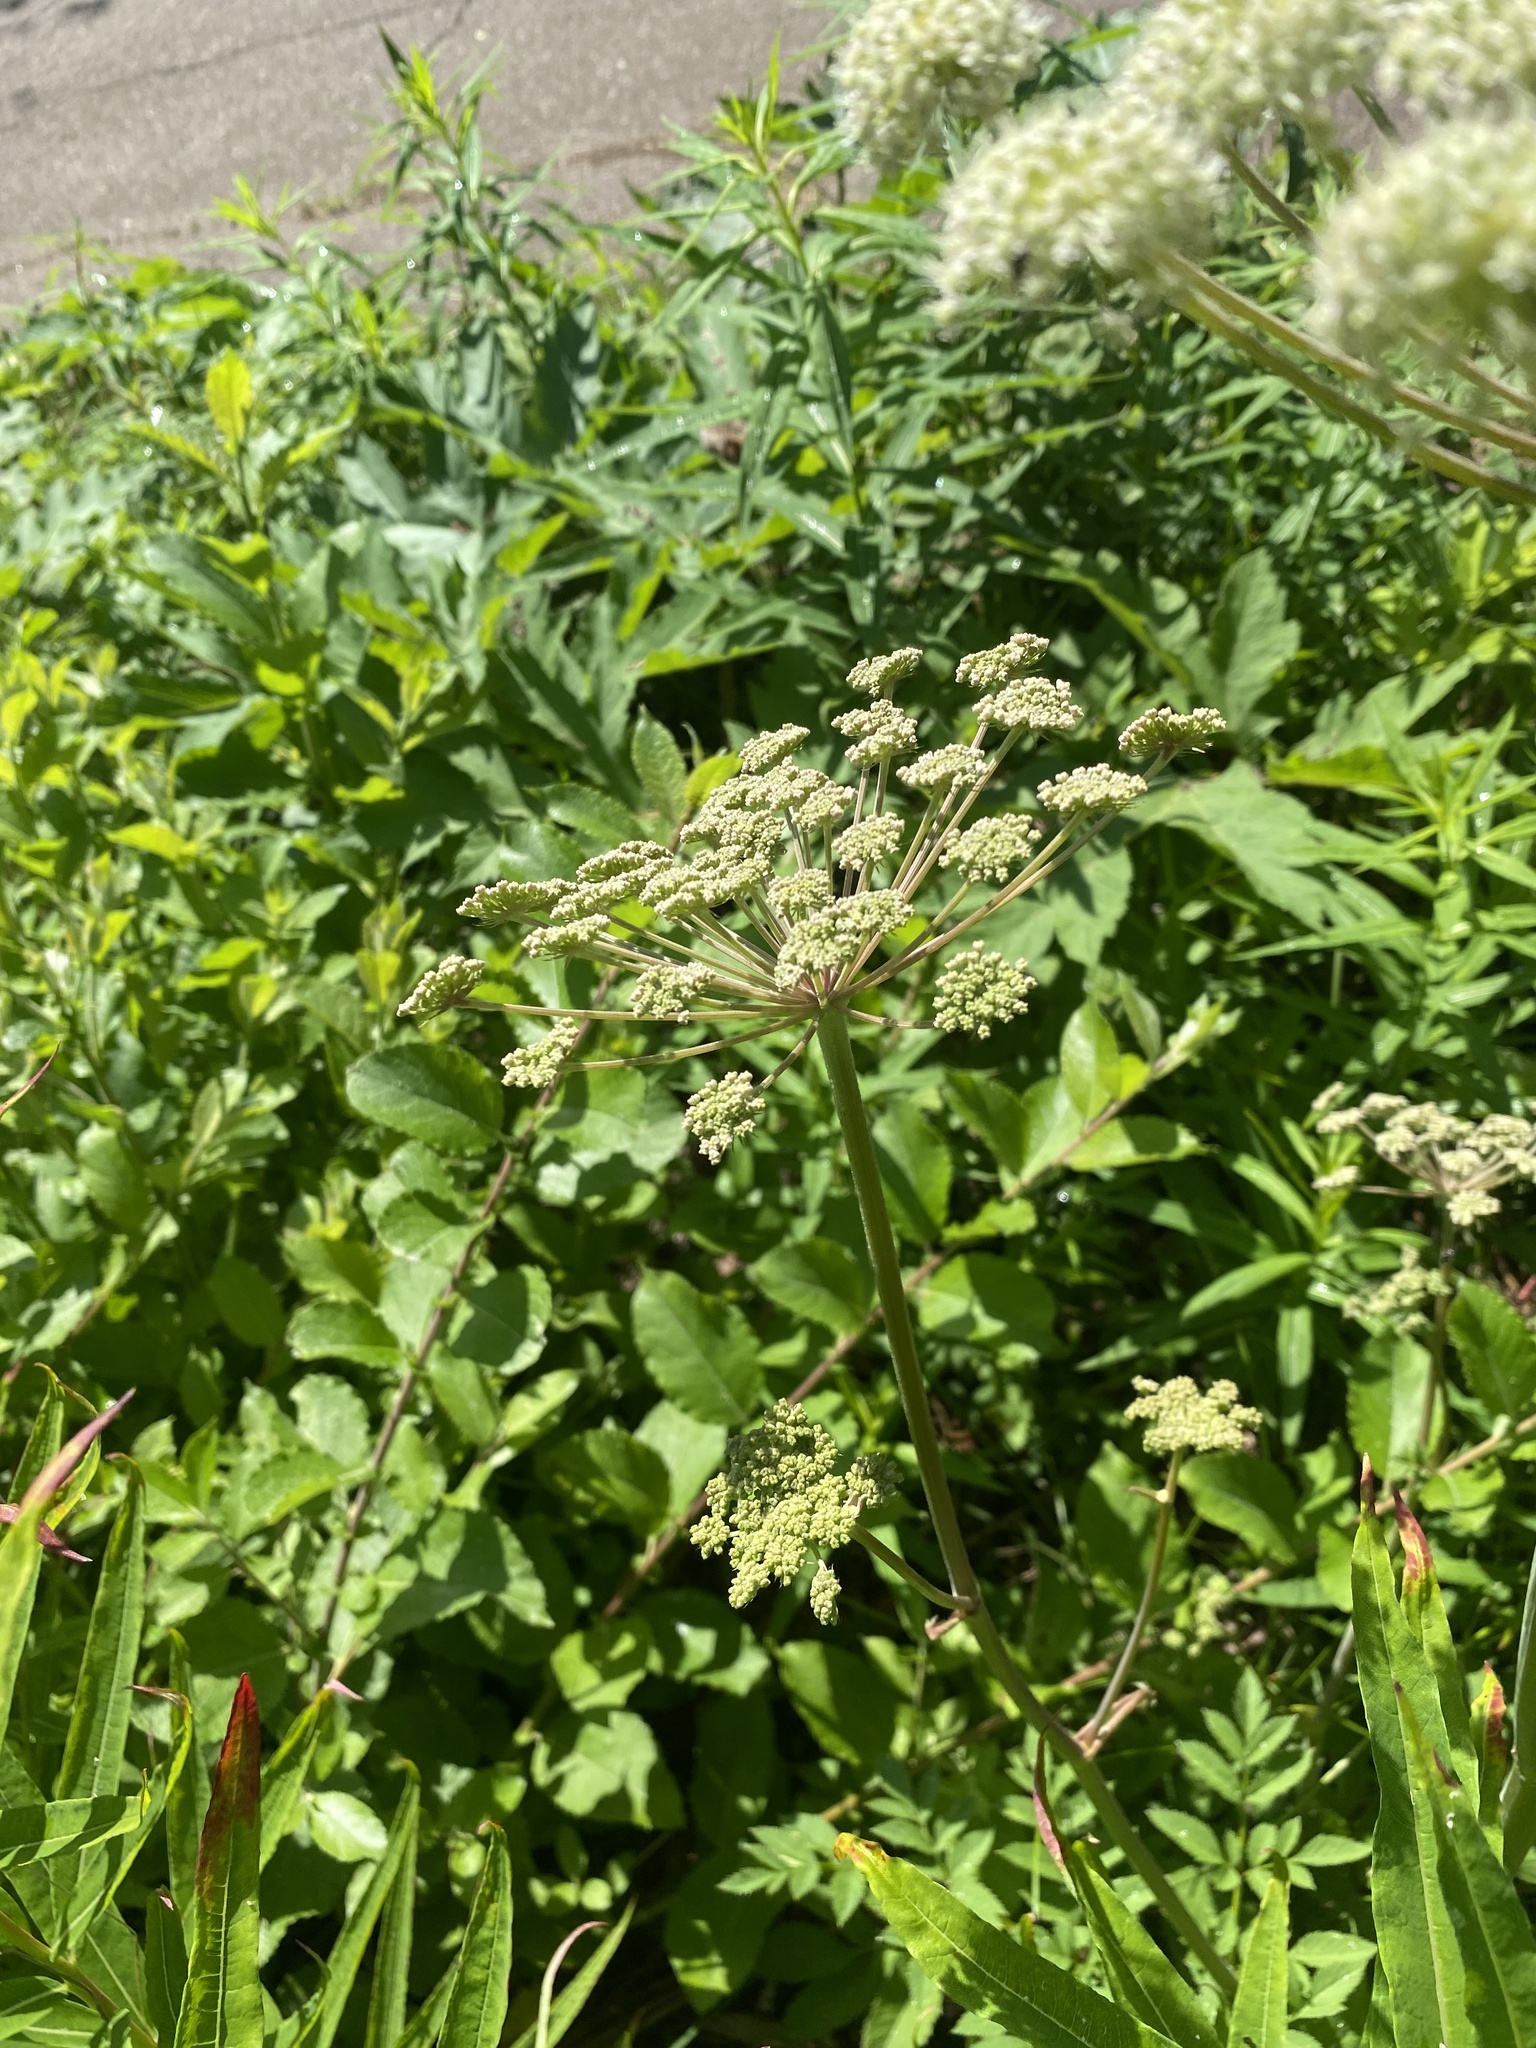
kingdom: Plantae
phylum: Tracheophyta
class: Magnoliopsida
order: Apiales
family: Apiaceae
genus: Angelica
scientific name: Angelica sylvestris
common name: Wild angelica
